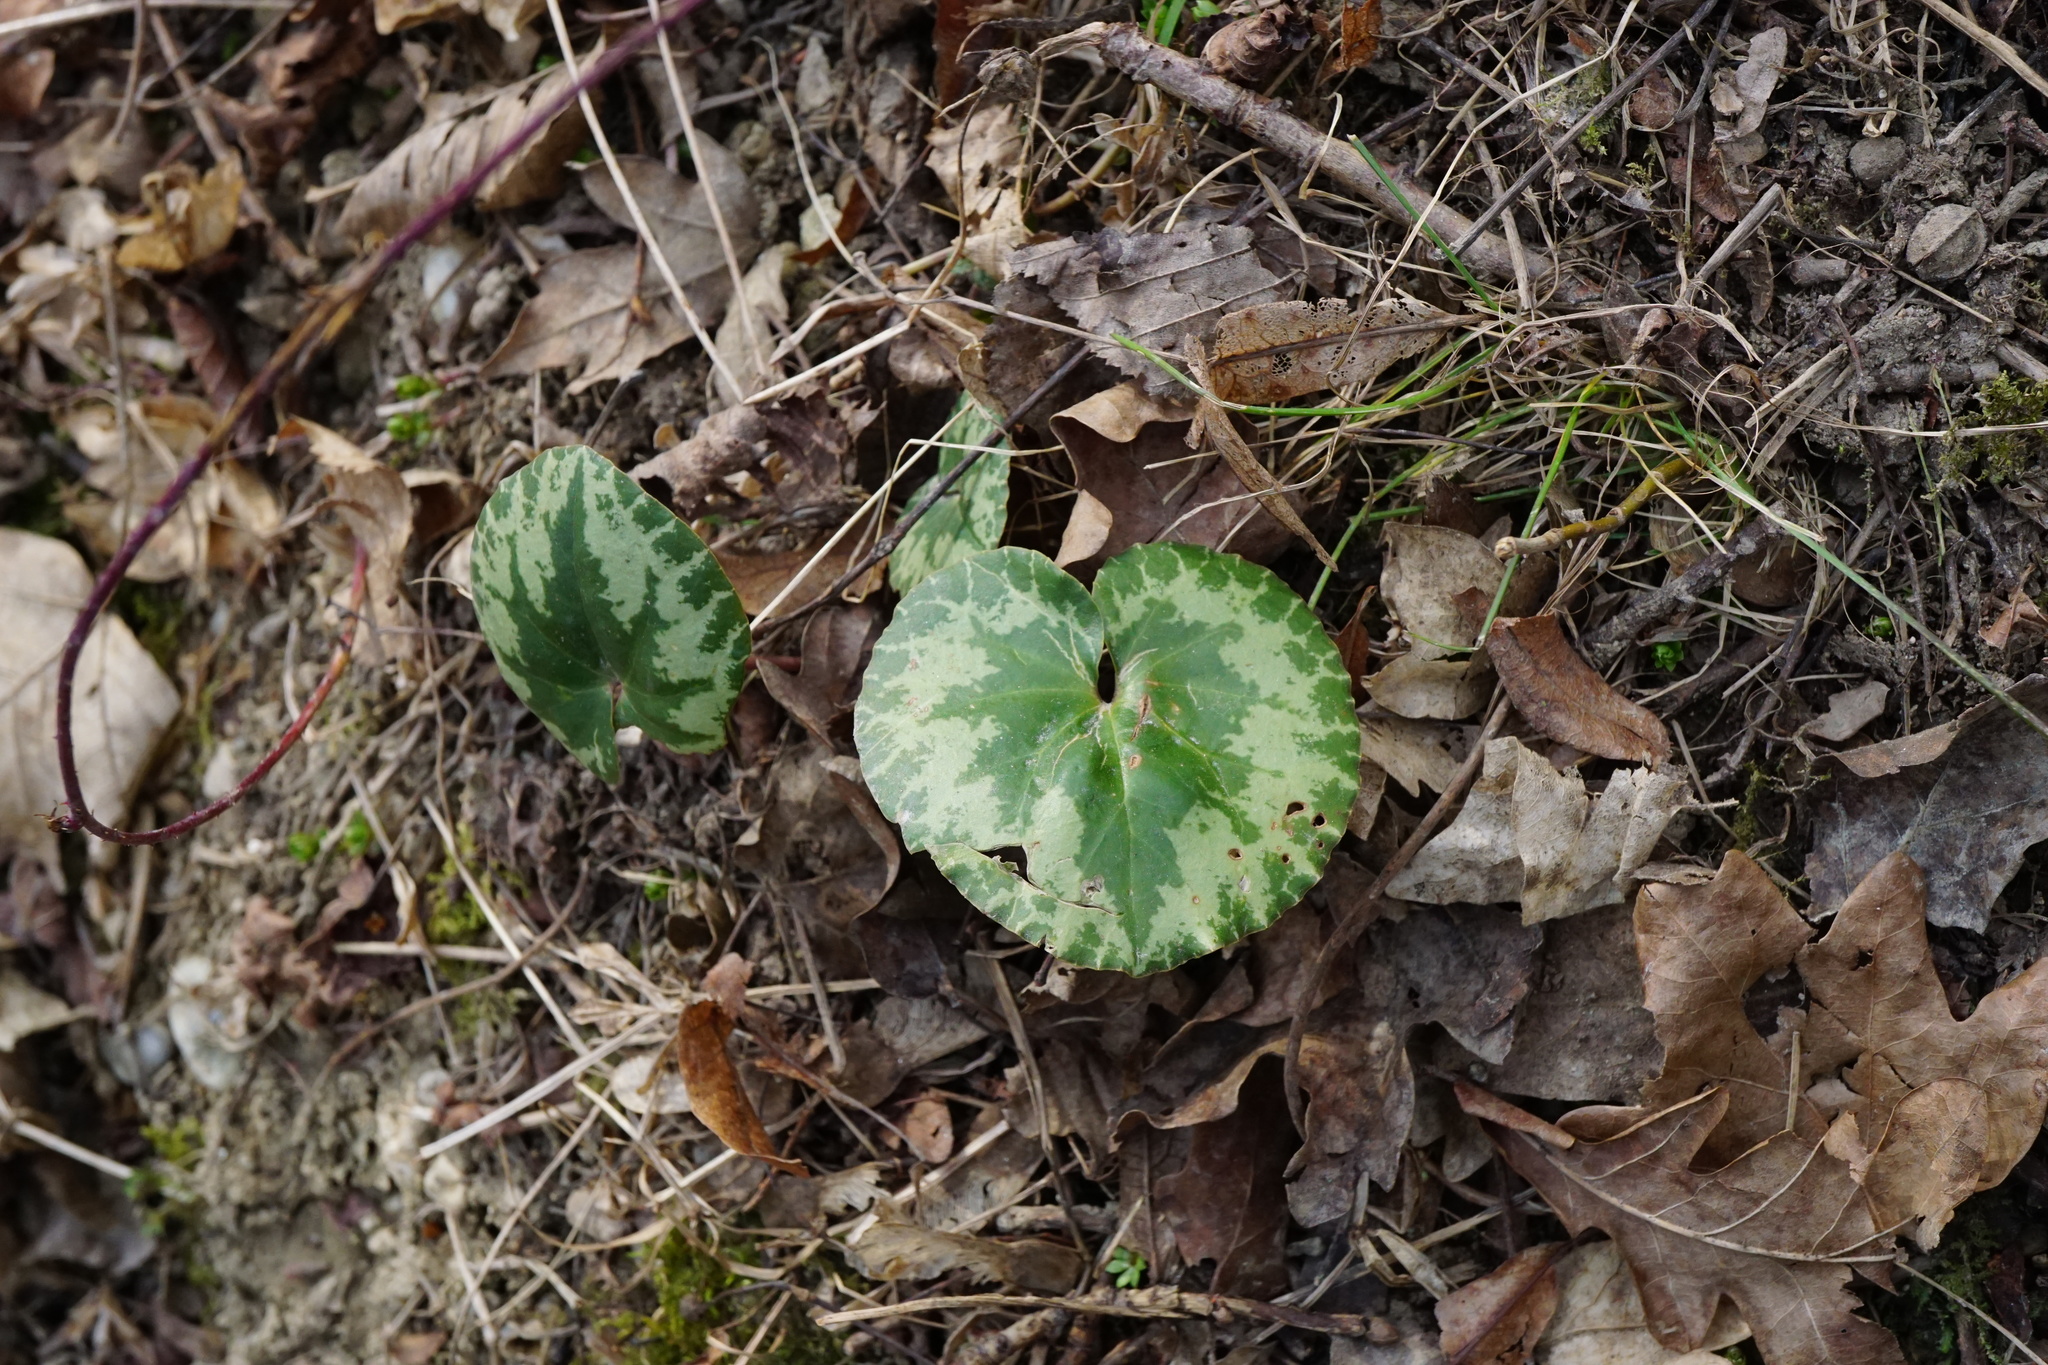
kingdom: Plantae
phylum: Tracheophyta
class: Magnoliopsida
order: Ericales
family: Primulaceae
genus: Cyclamen
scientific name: Cyclamen purpurascens
